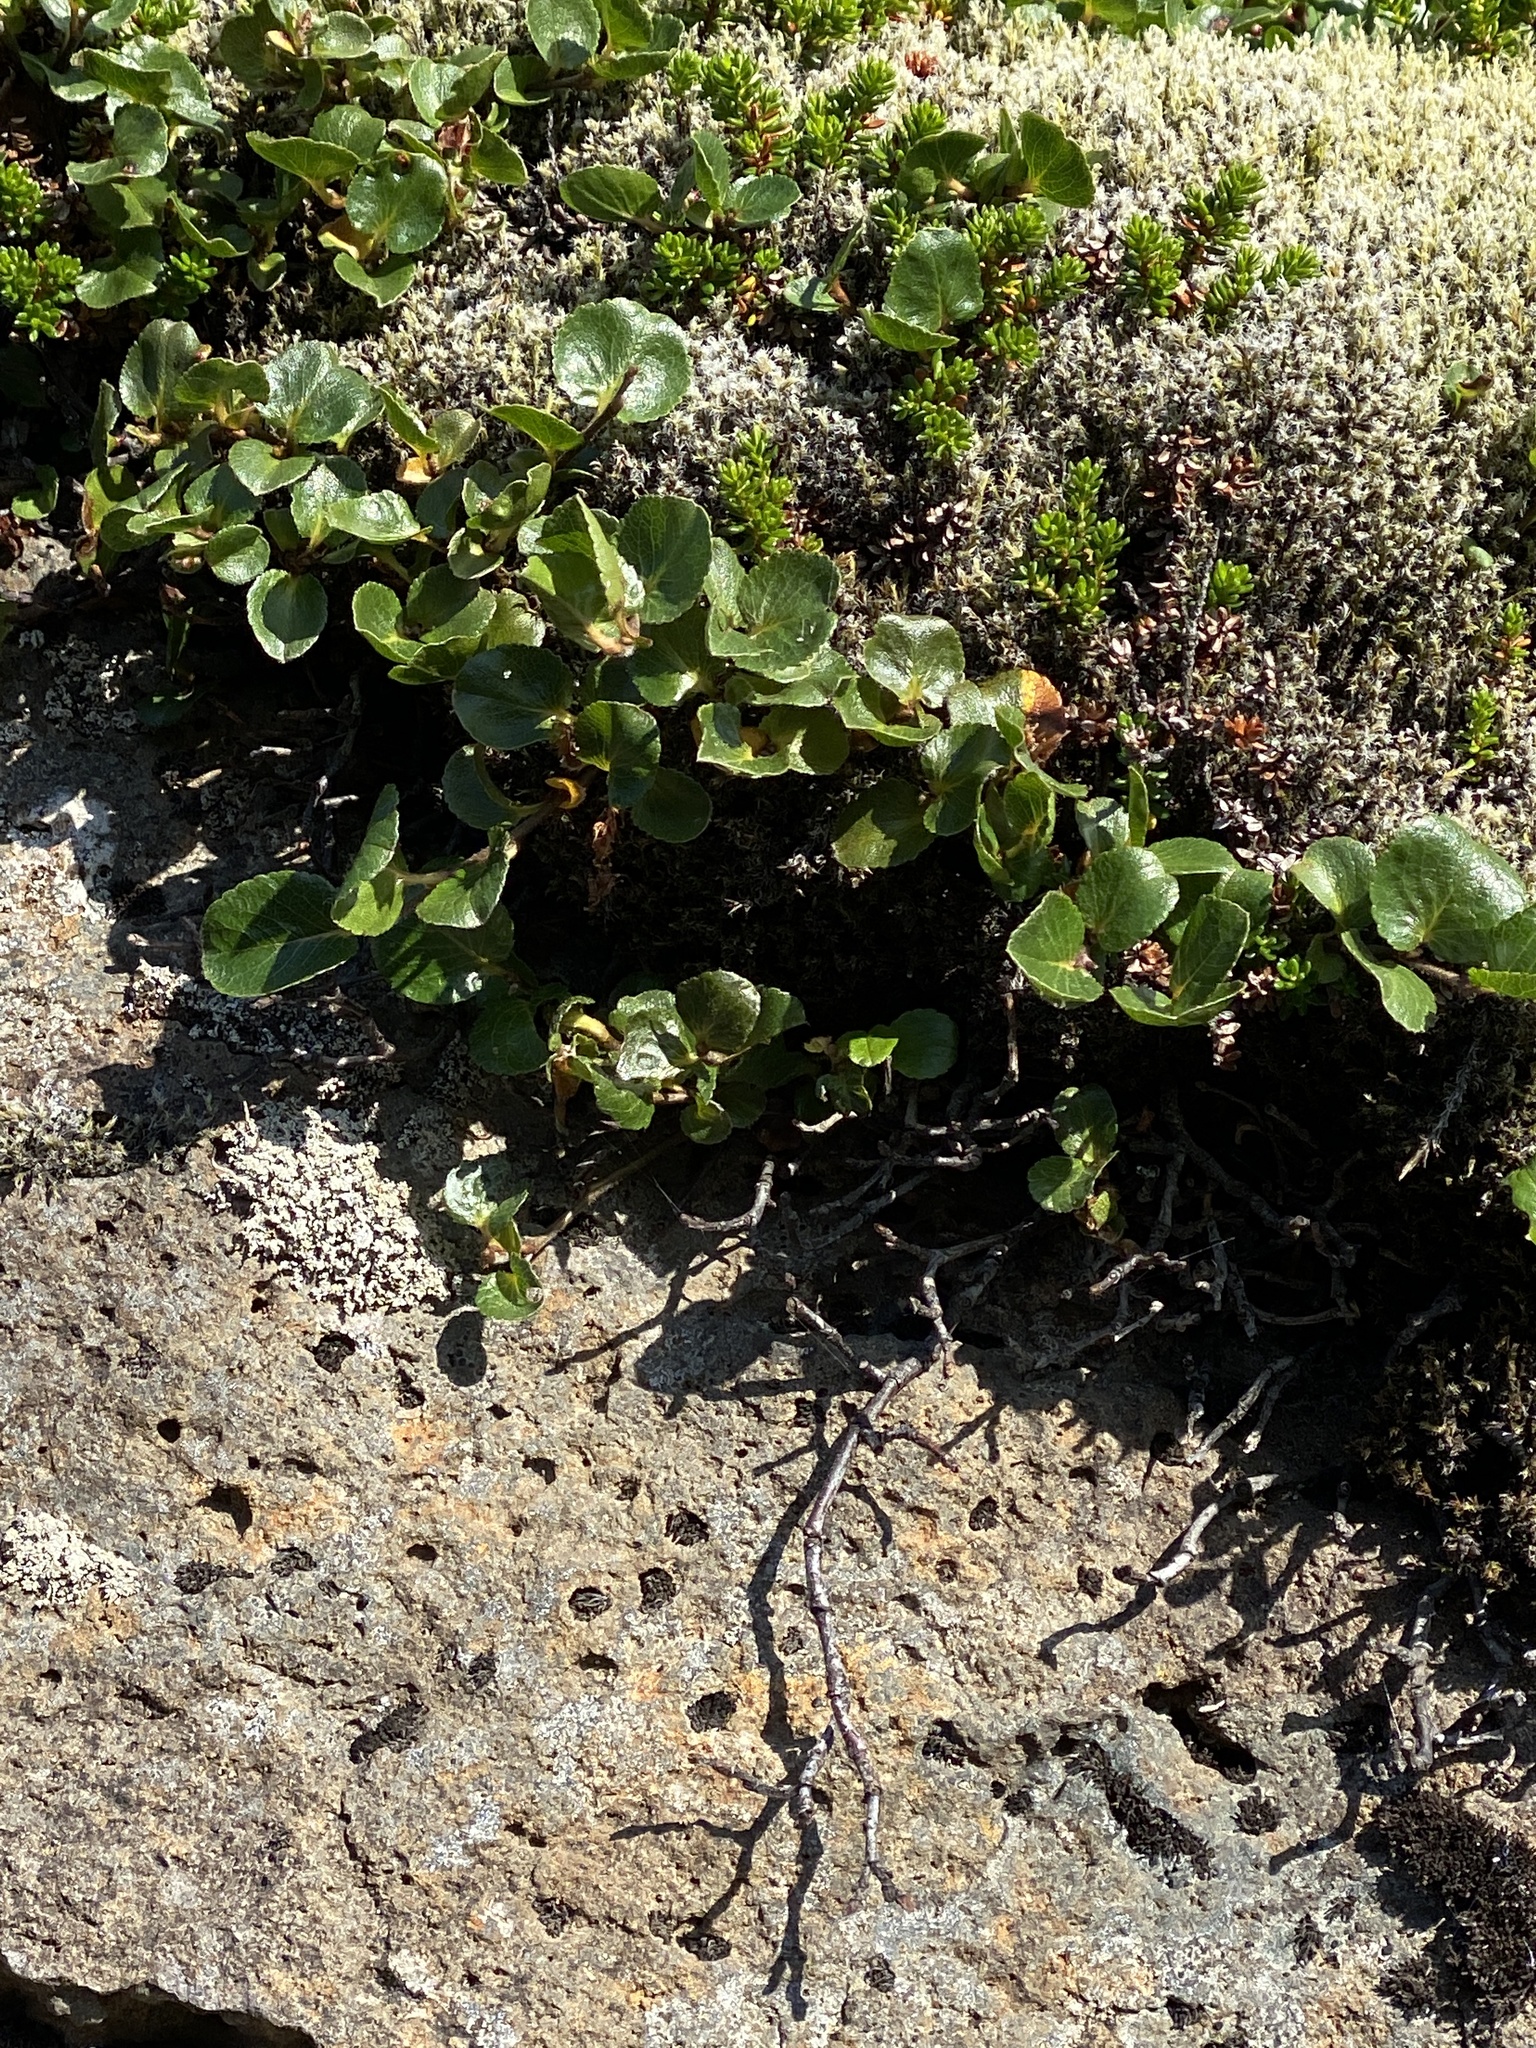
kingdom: Plantae
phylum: Tracheophyta
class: Magnoliopsida
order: Malpighiales
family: Salicaceae
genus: Salix
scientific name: Salix herbacea
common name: Dwarf willow
